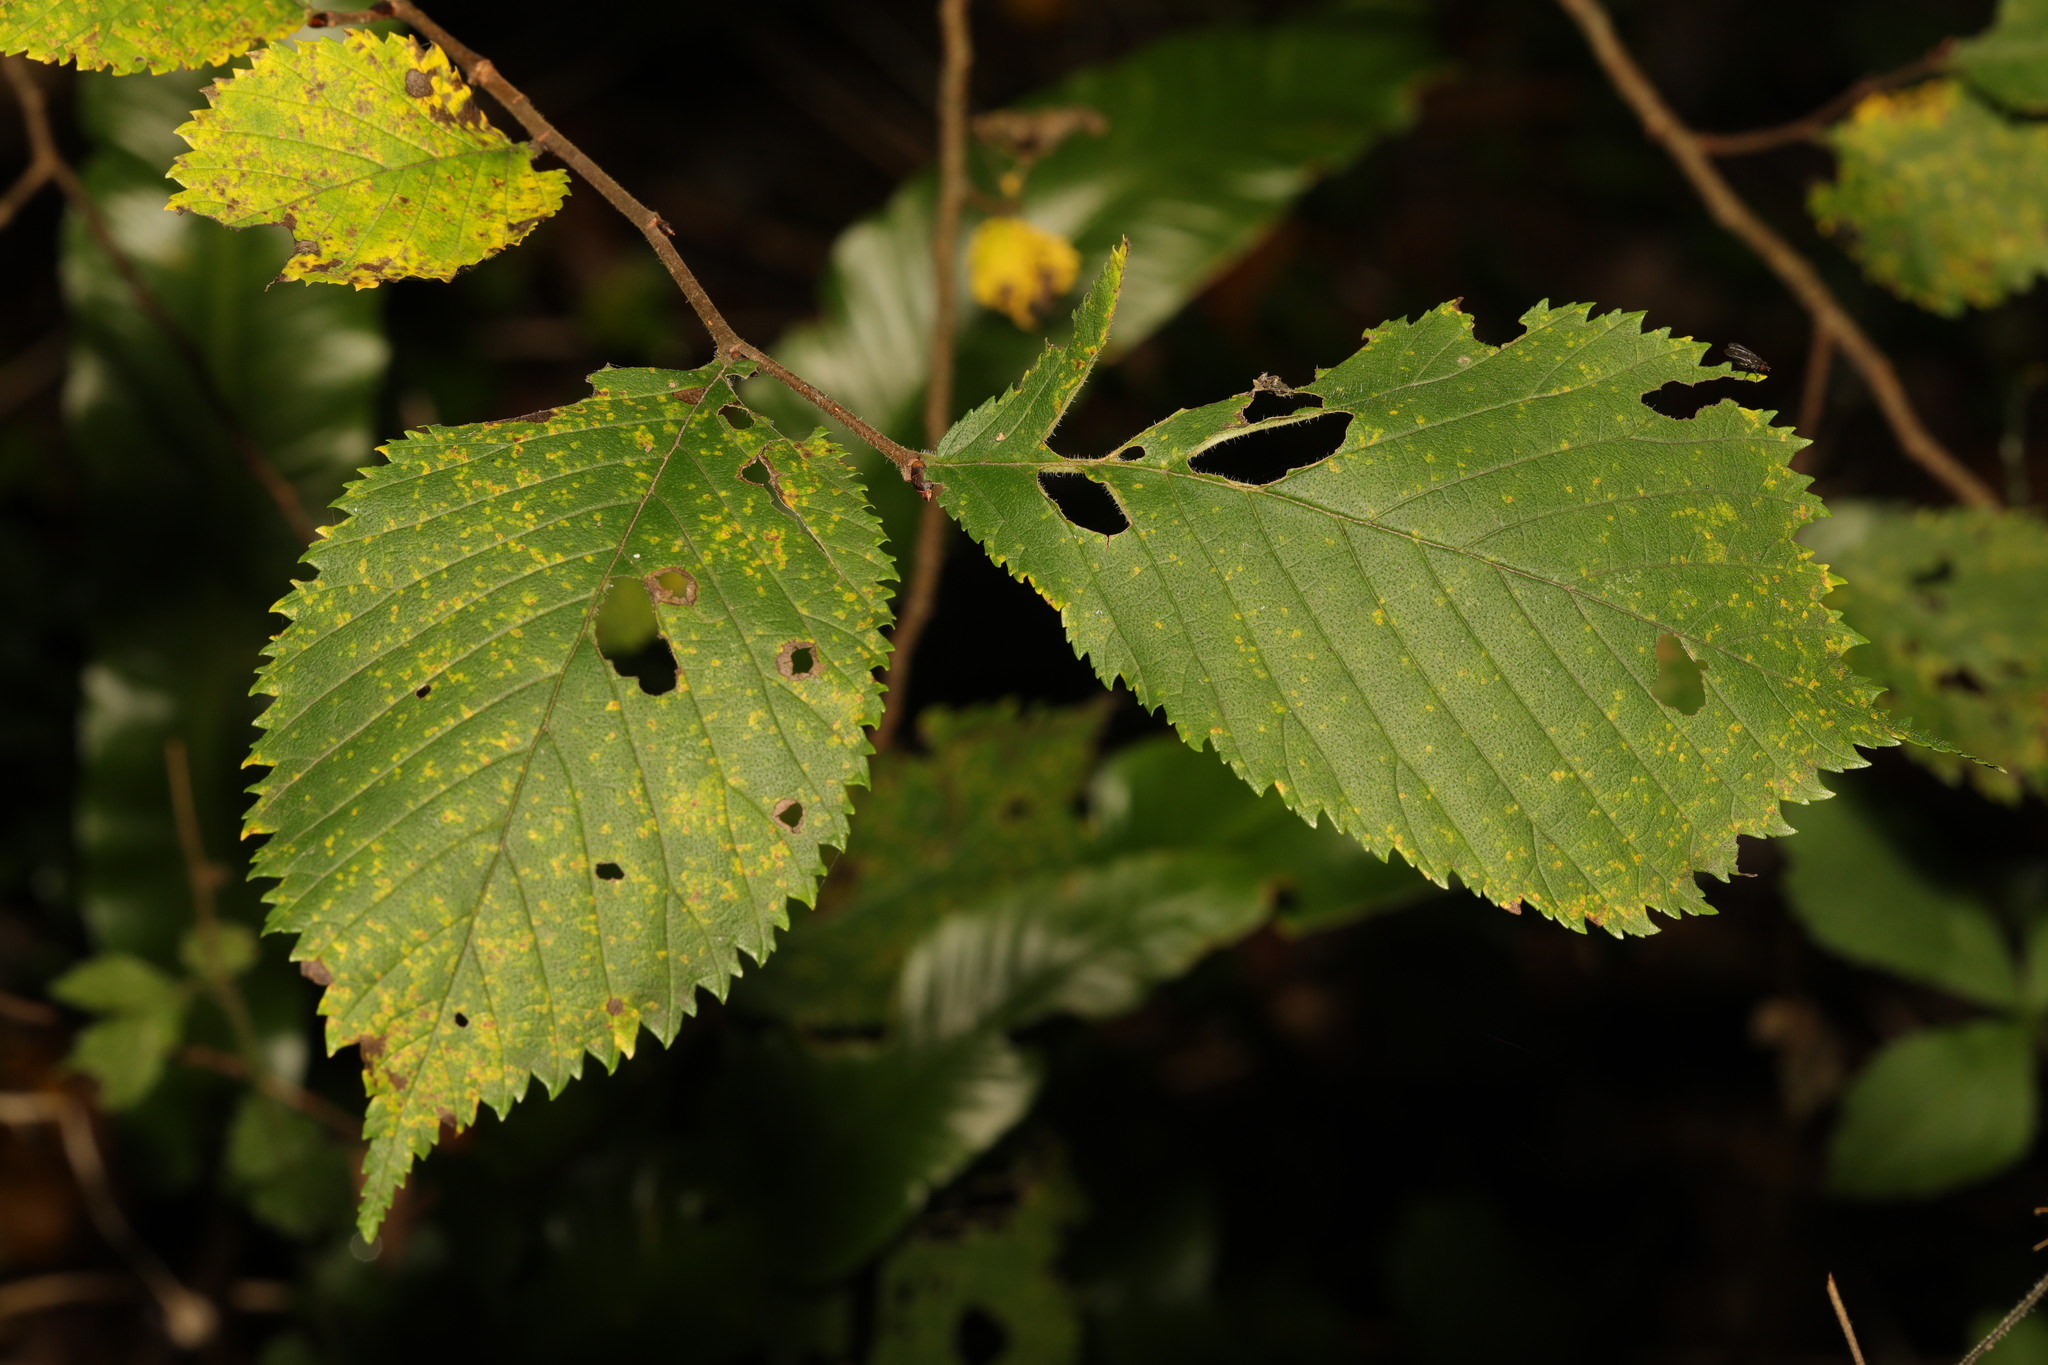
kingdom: Plantae
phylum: Tracheophyta
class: Magnoliopsida
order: Rosales
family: Ulmaceae
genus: Ulmus
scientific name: Ulmus glabra
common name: Wych elm
